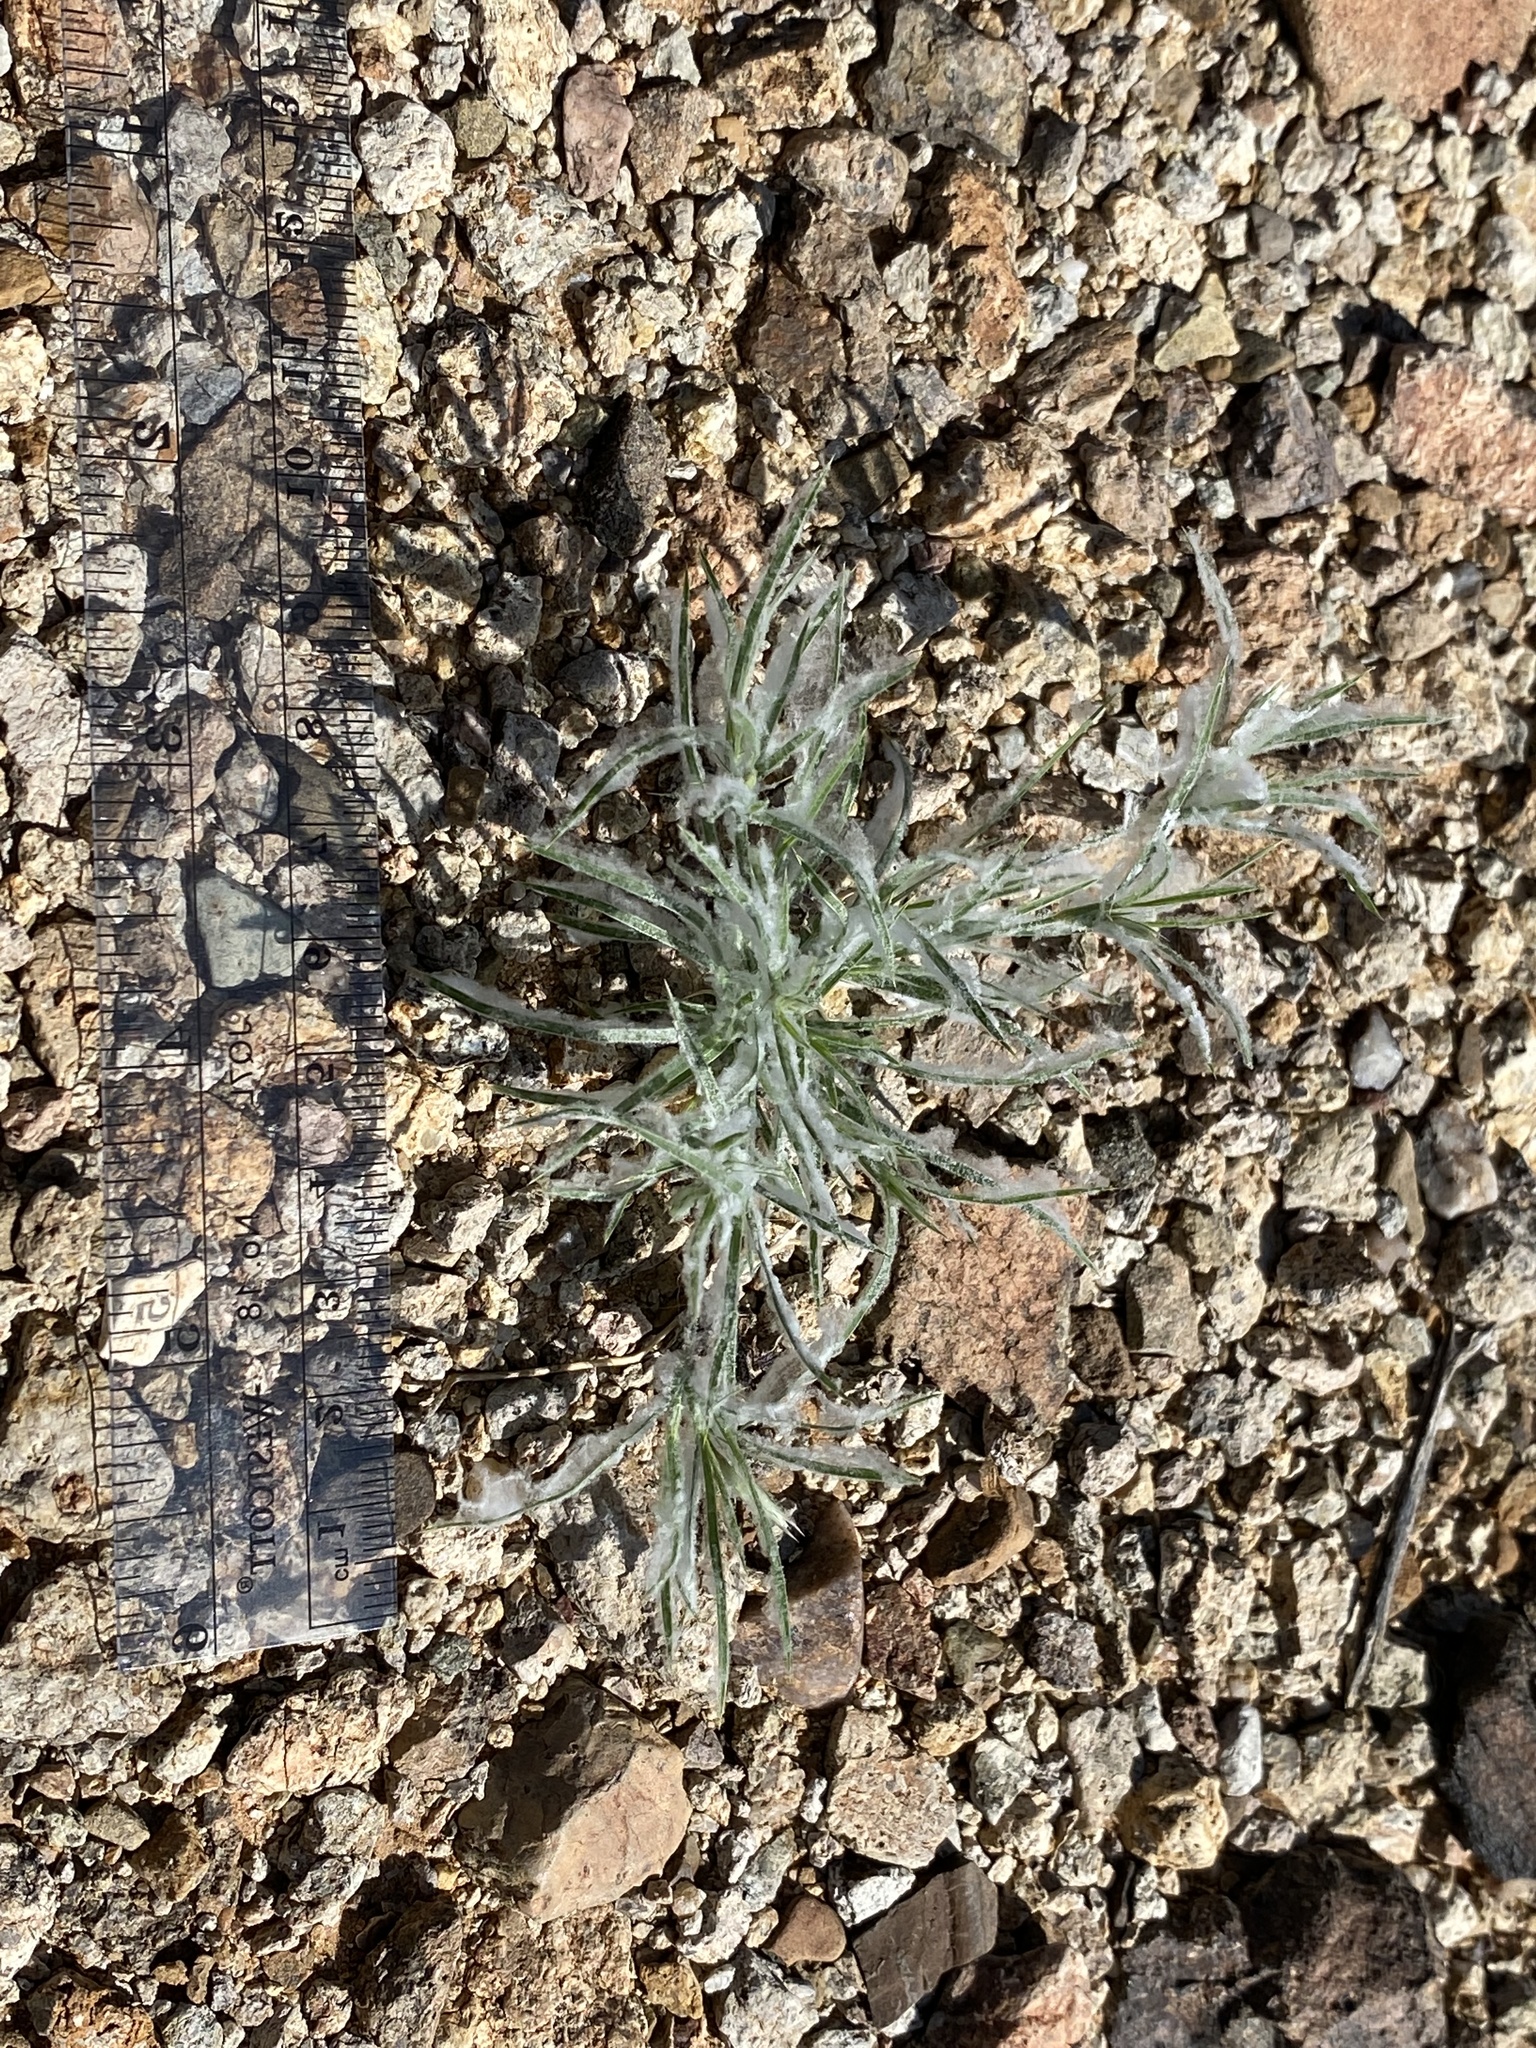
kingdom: Plantae
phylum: Tracheophyta
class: Liliopsida
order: Poales
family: Poaceae
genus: Dasyochloa
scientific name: Dasyochloa pulchella
